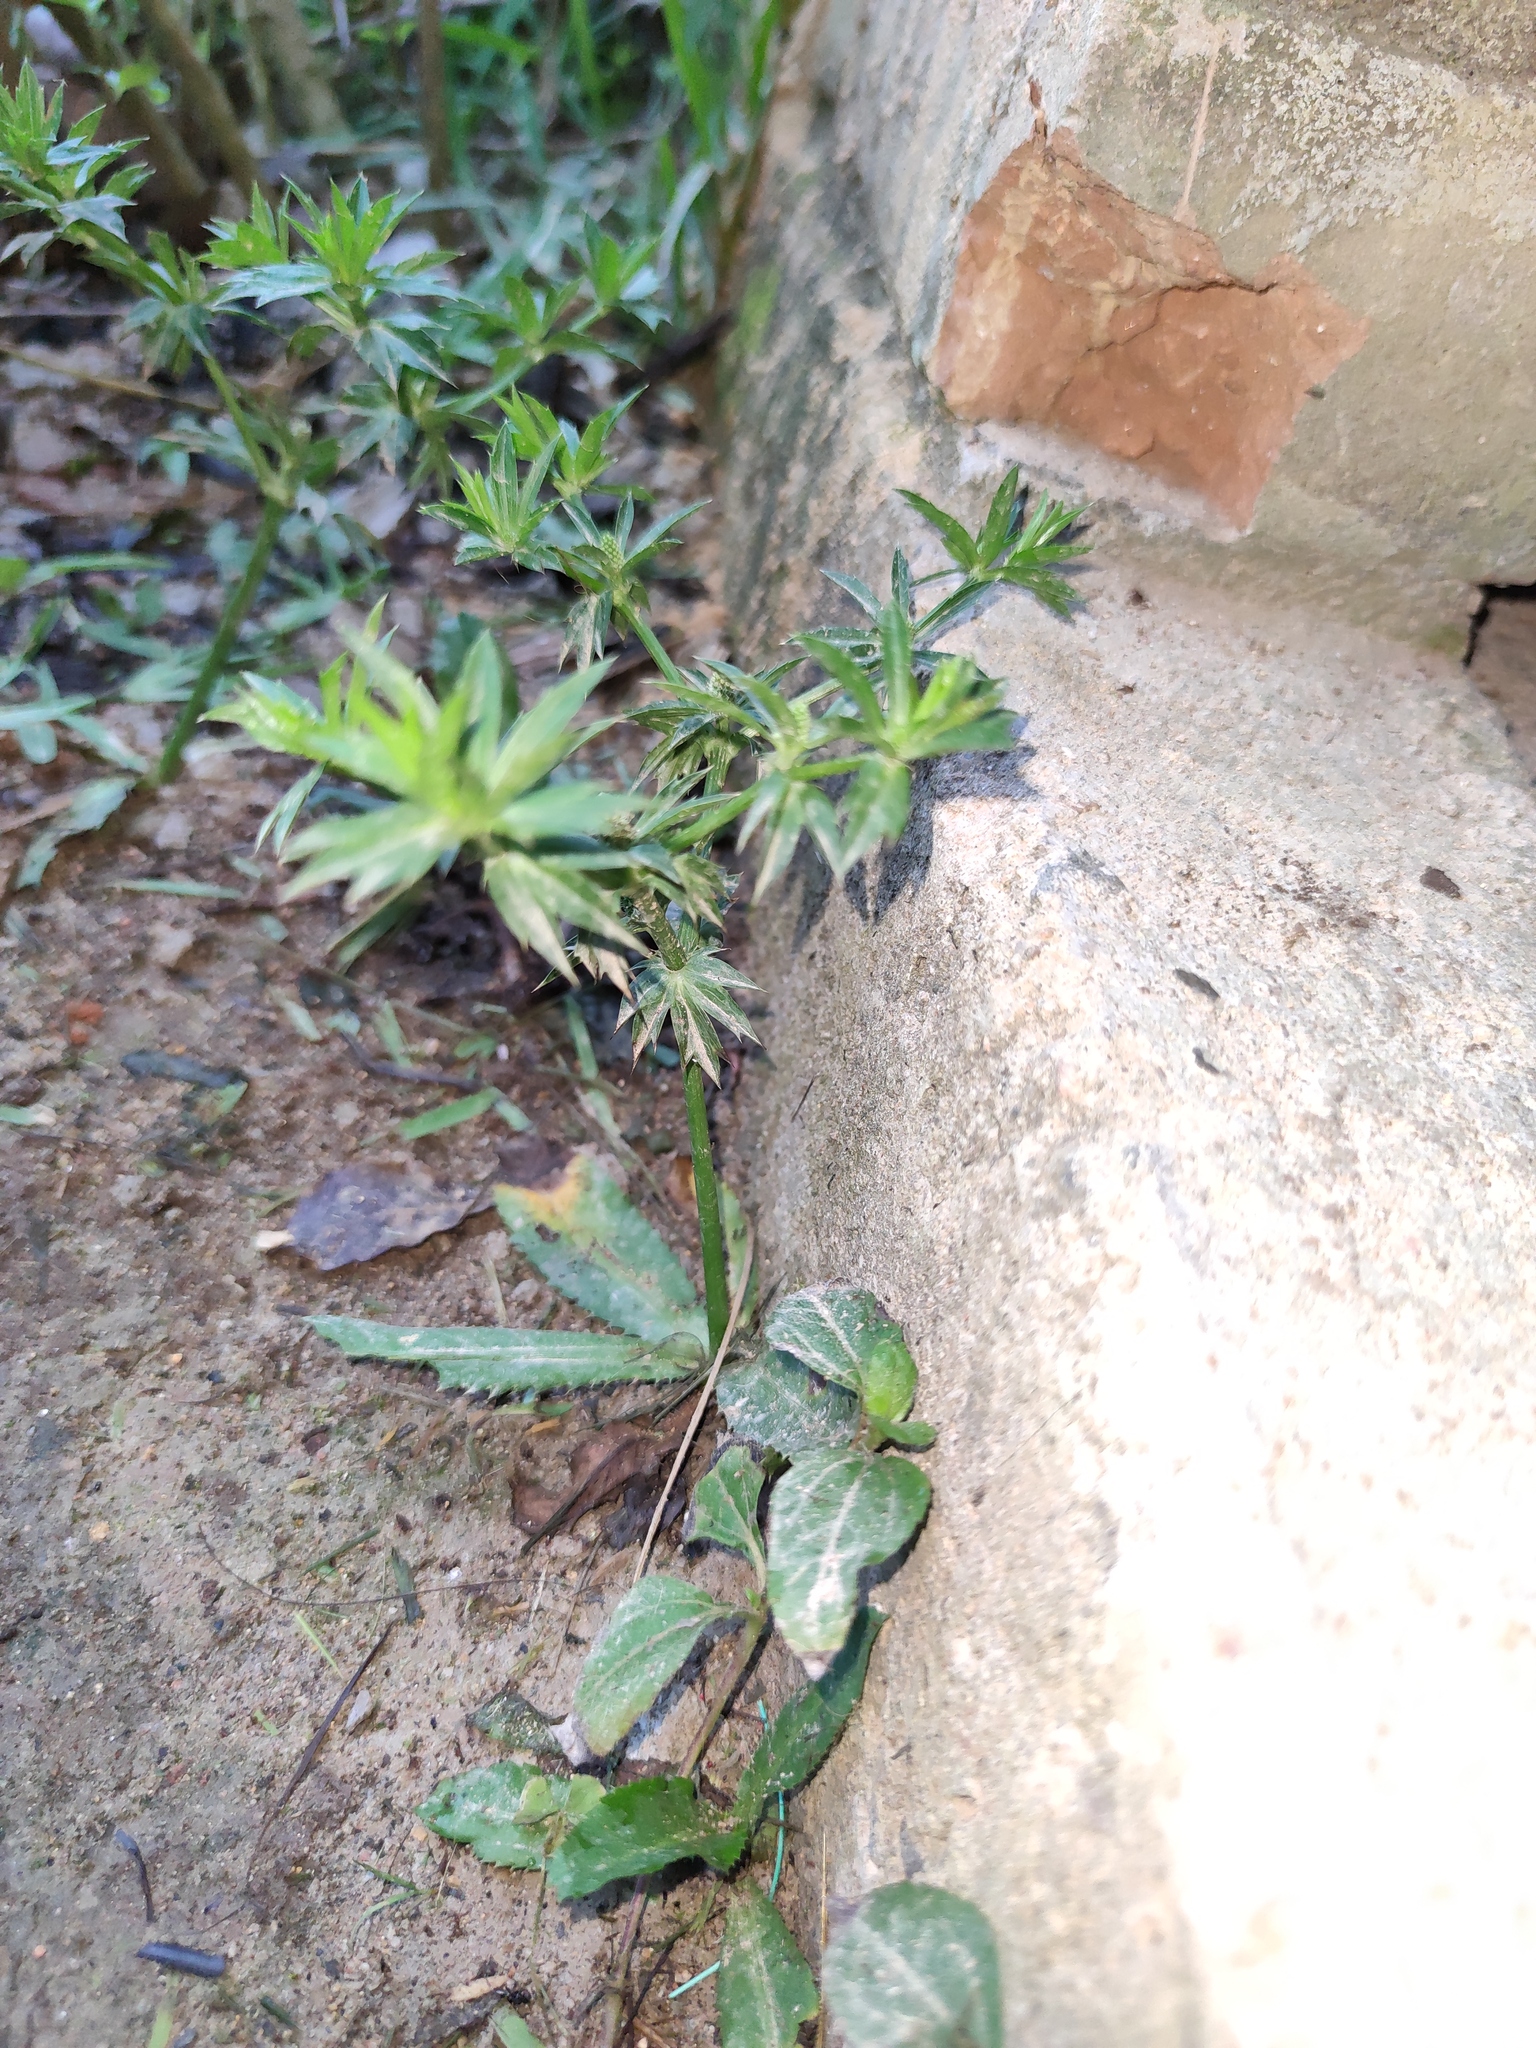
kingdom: Plantae
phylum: Tracheophyta
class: Magnoliopsida
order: Apiales
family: Apiaceae
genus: Eryngium
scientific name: Eryngium foetidum
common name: Fitweed
